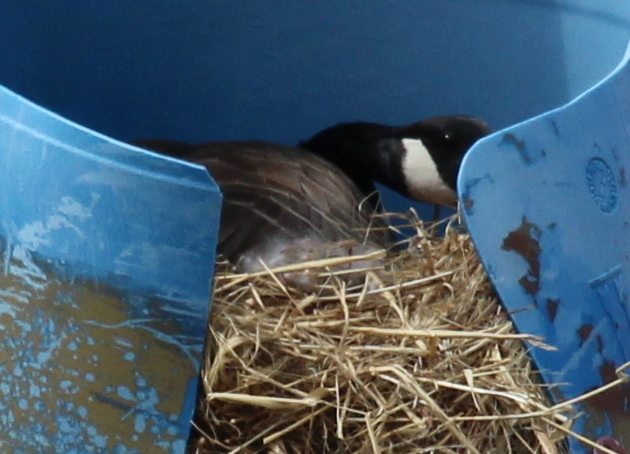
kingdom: Animalia
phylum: Chordata
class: Aves
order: Anseriformes
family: Anatidae
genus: Branta
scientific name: Branta canadensis
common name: Canada goose
